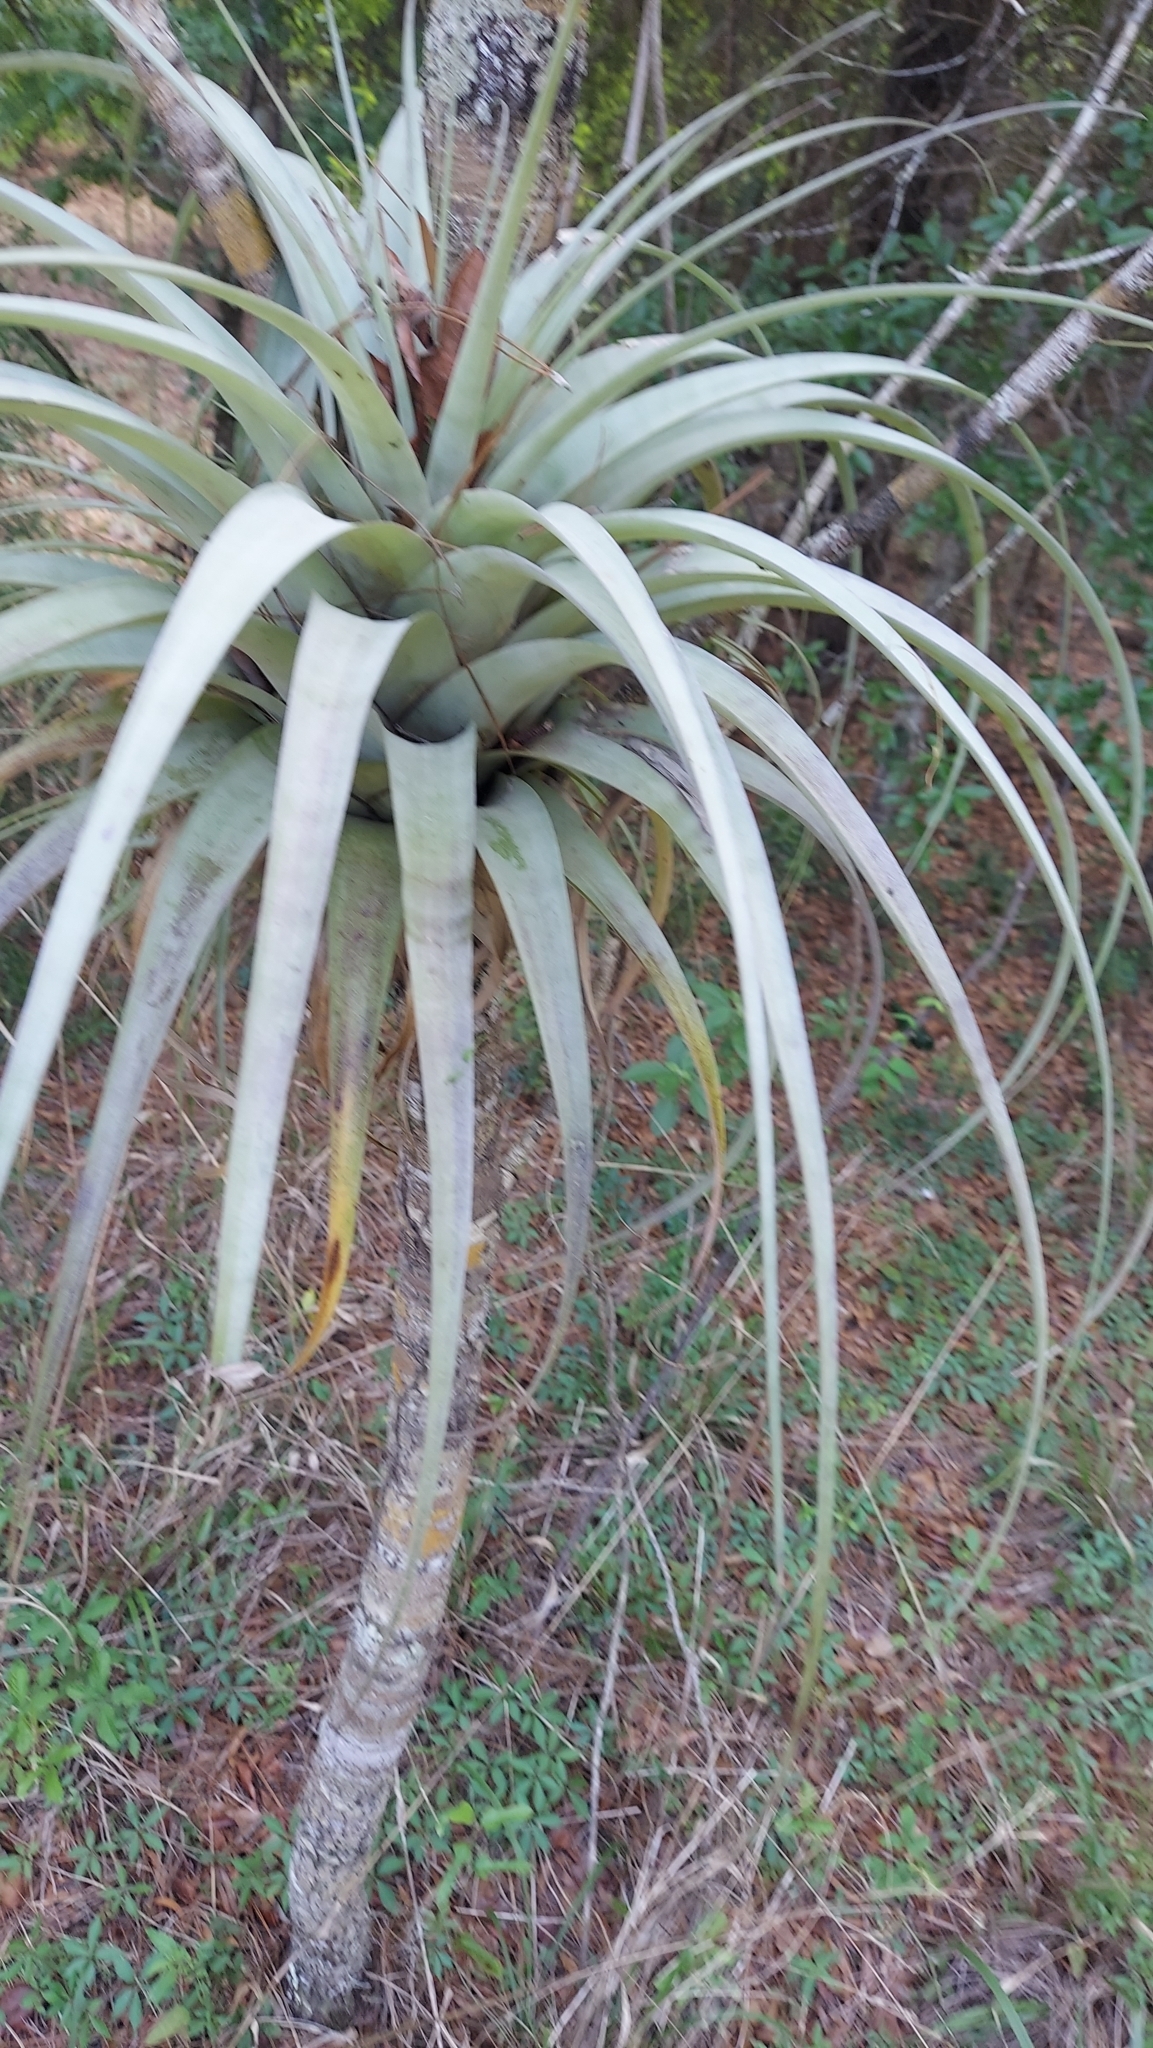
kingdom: Plantae
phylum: Tracheophyta
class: Liliopsida
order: Poales
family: Bromeliaceae
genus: Tillandsia
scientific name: Tillandsia utriculata
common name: Wild pine
